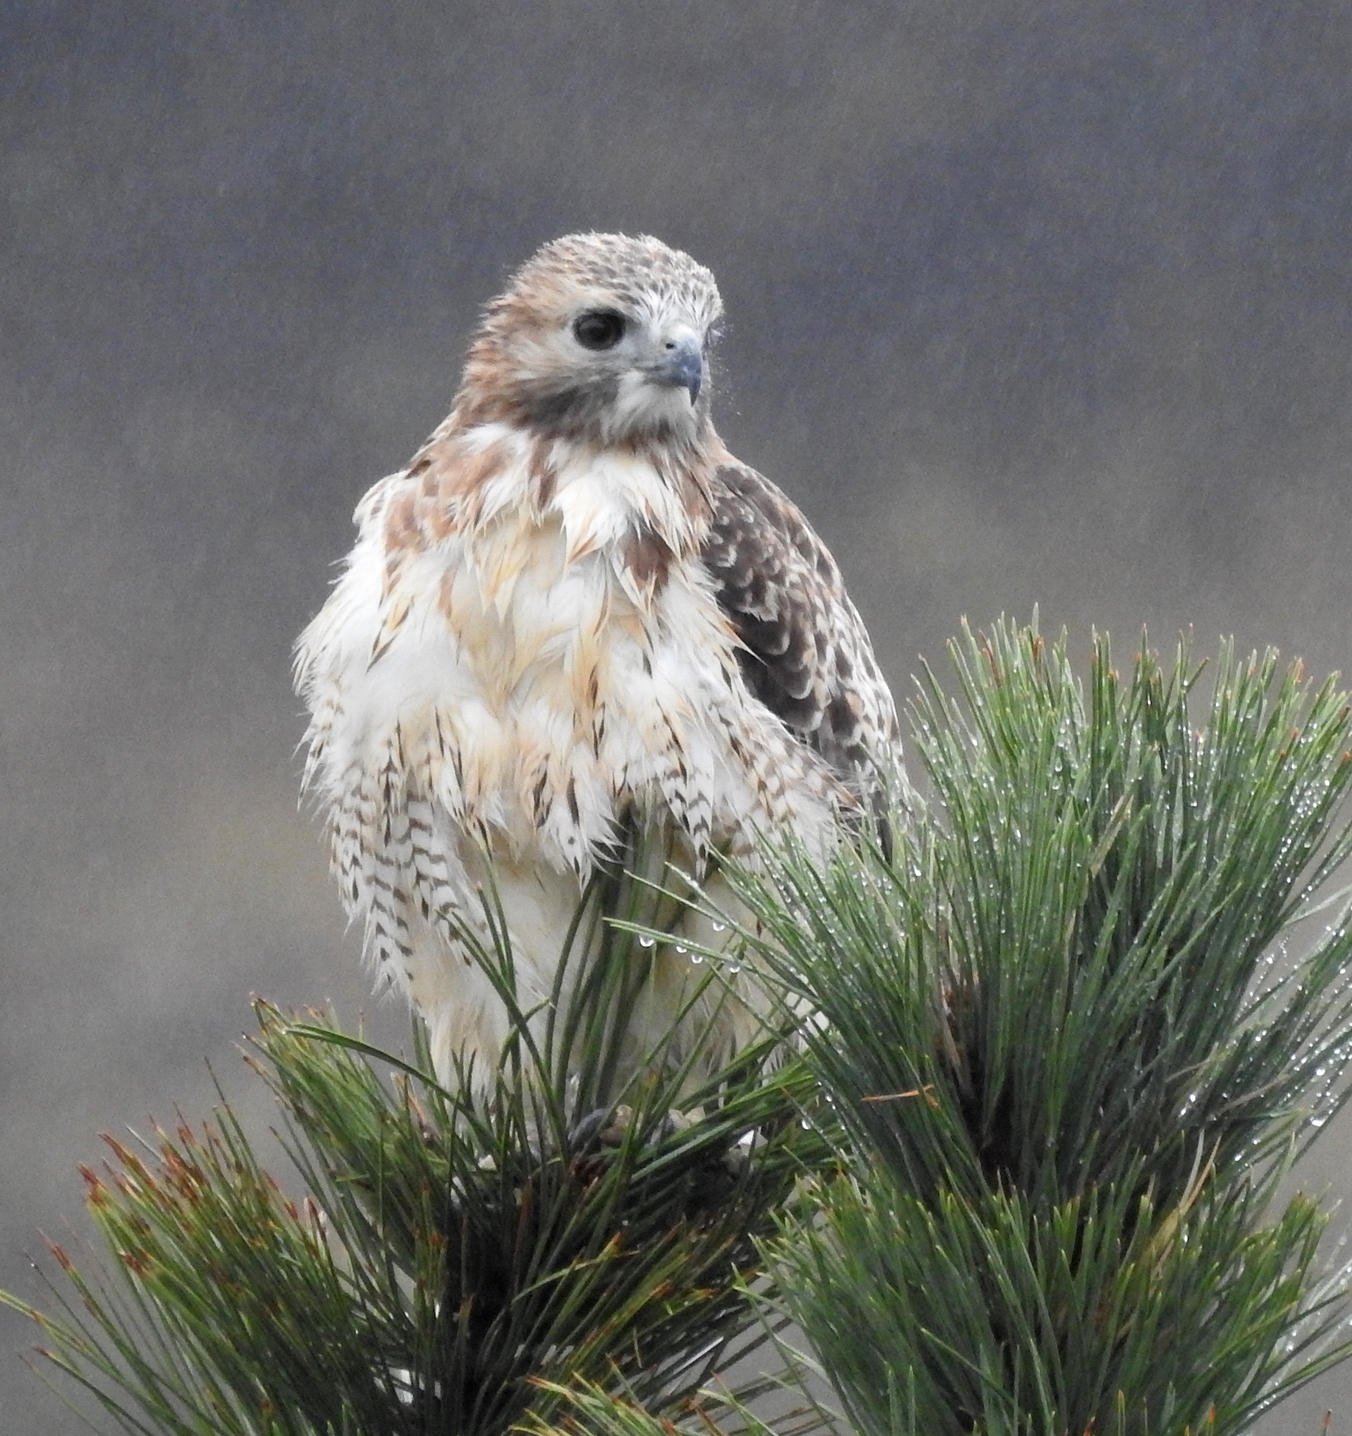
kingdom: Animalia
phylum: Chordata
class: Aves
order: Accipitriformes
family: Accipitridae
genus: Buteo
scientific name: Buteo jamaicensis
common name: Red-tailed hawk
